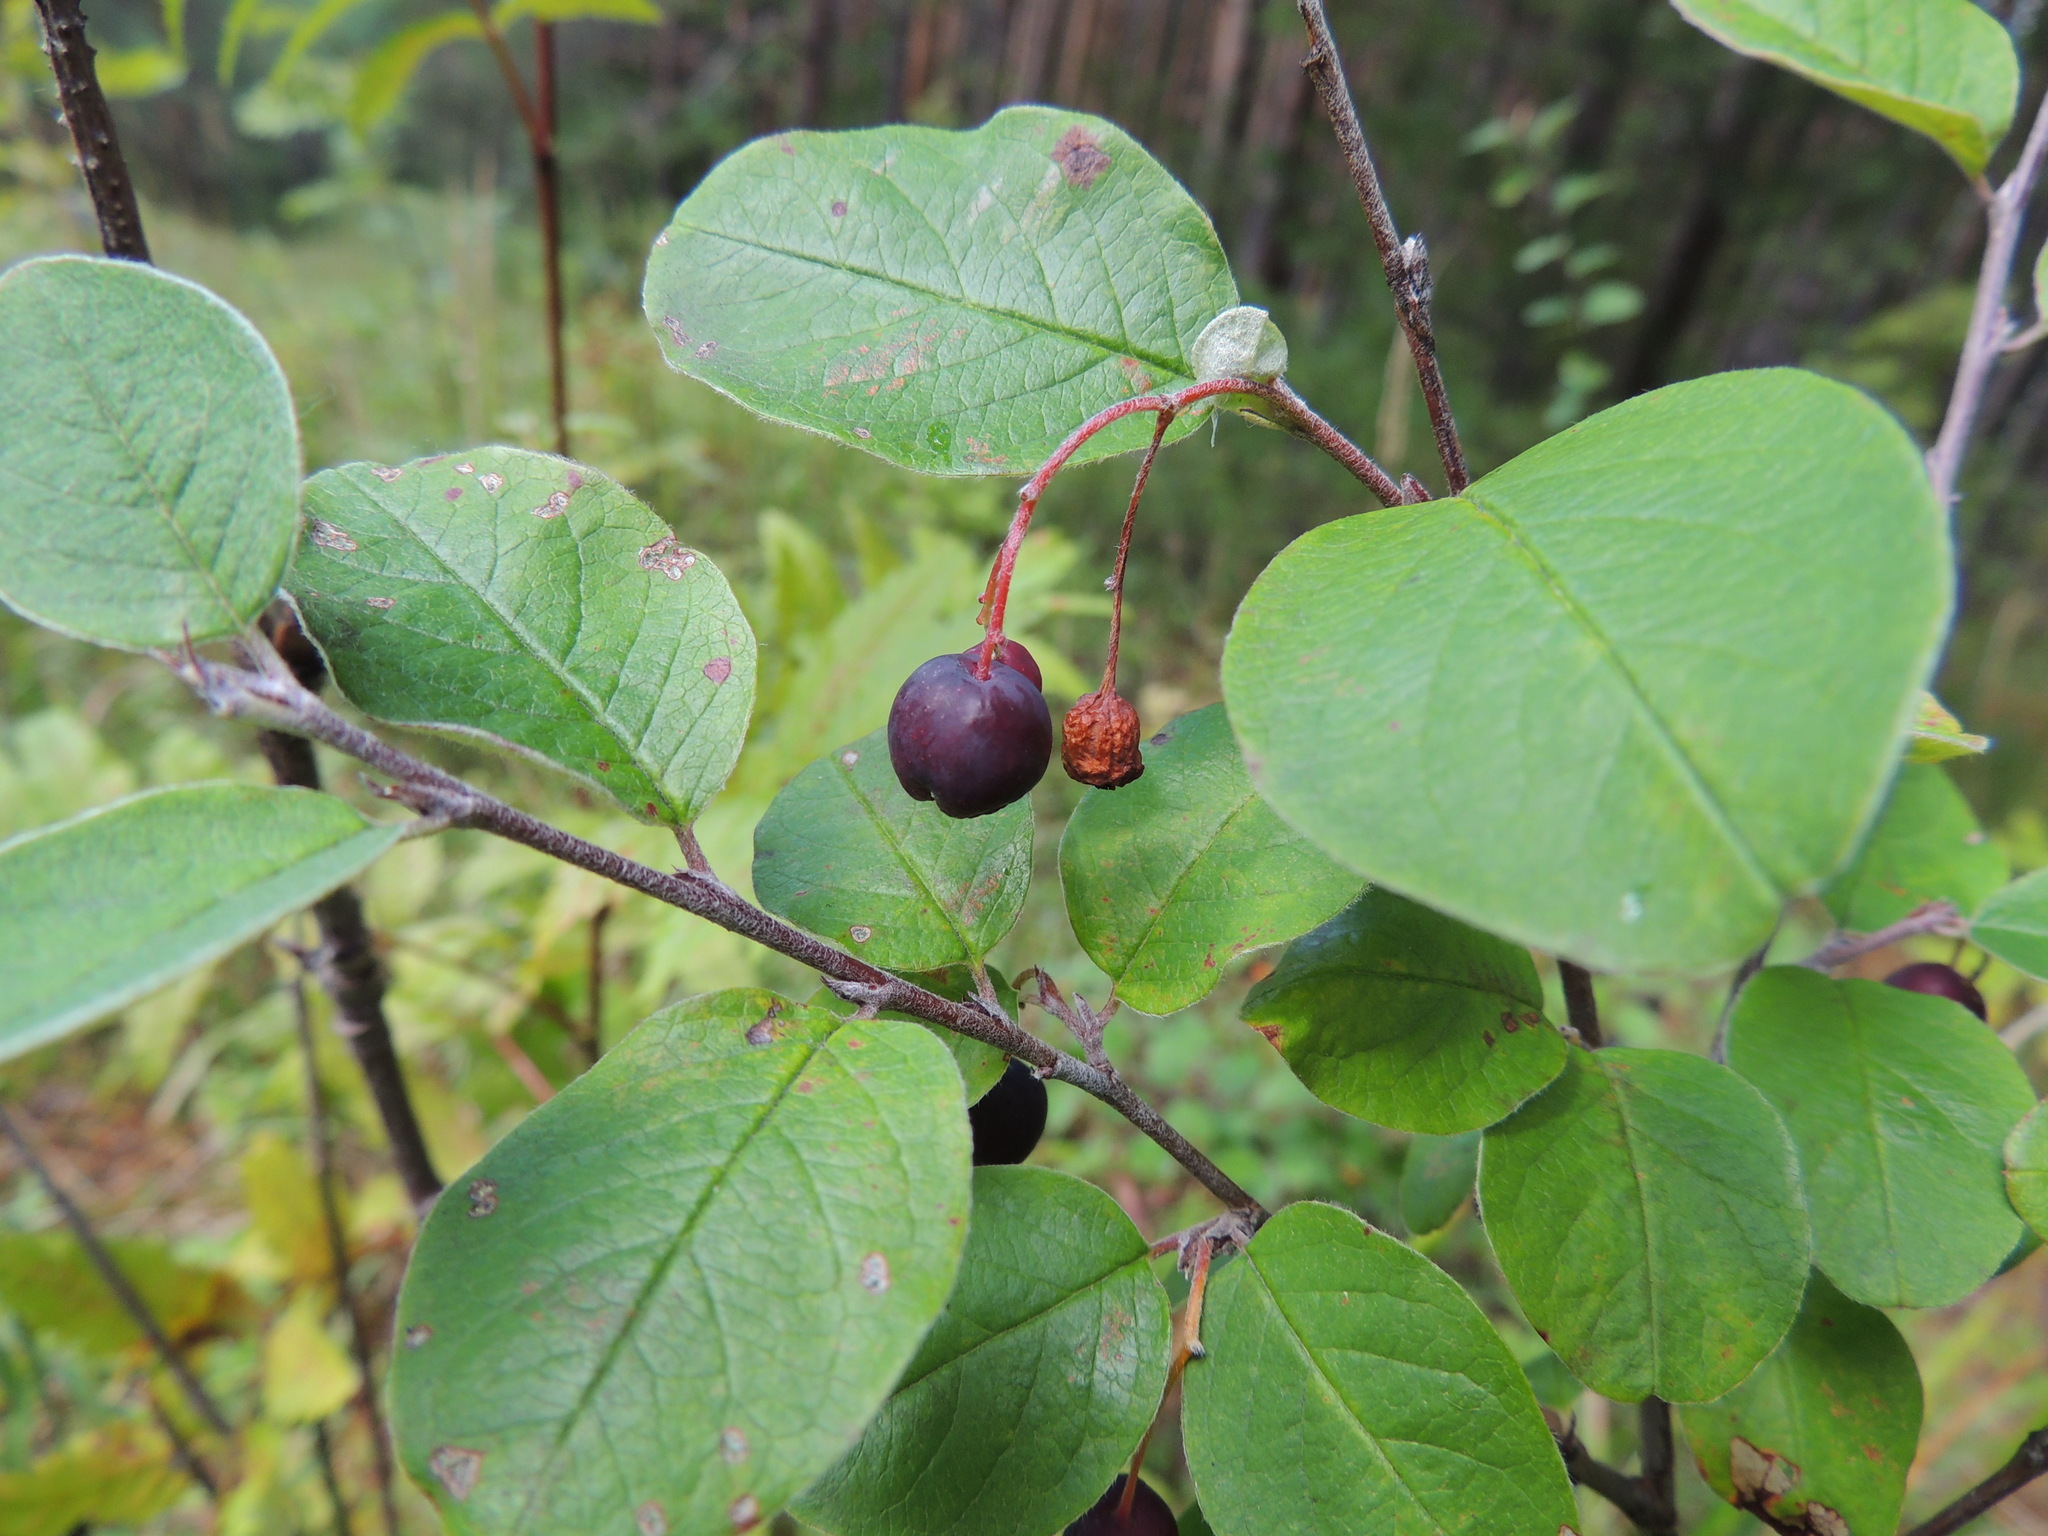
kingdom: Plantae
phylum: Tracheophyta
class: Magnoliopsida
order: Rosales
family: Rosaceae
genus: Cotoneaster
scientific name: Cotoneaster melanocarpus
